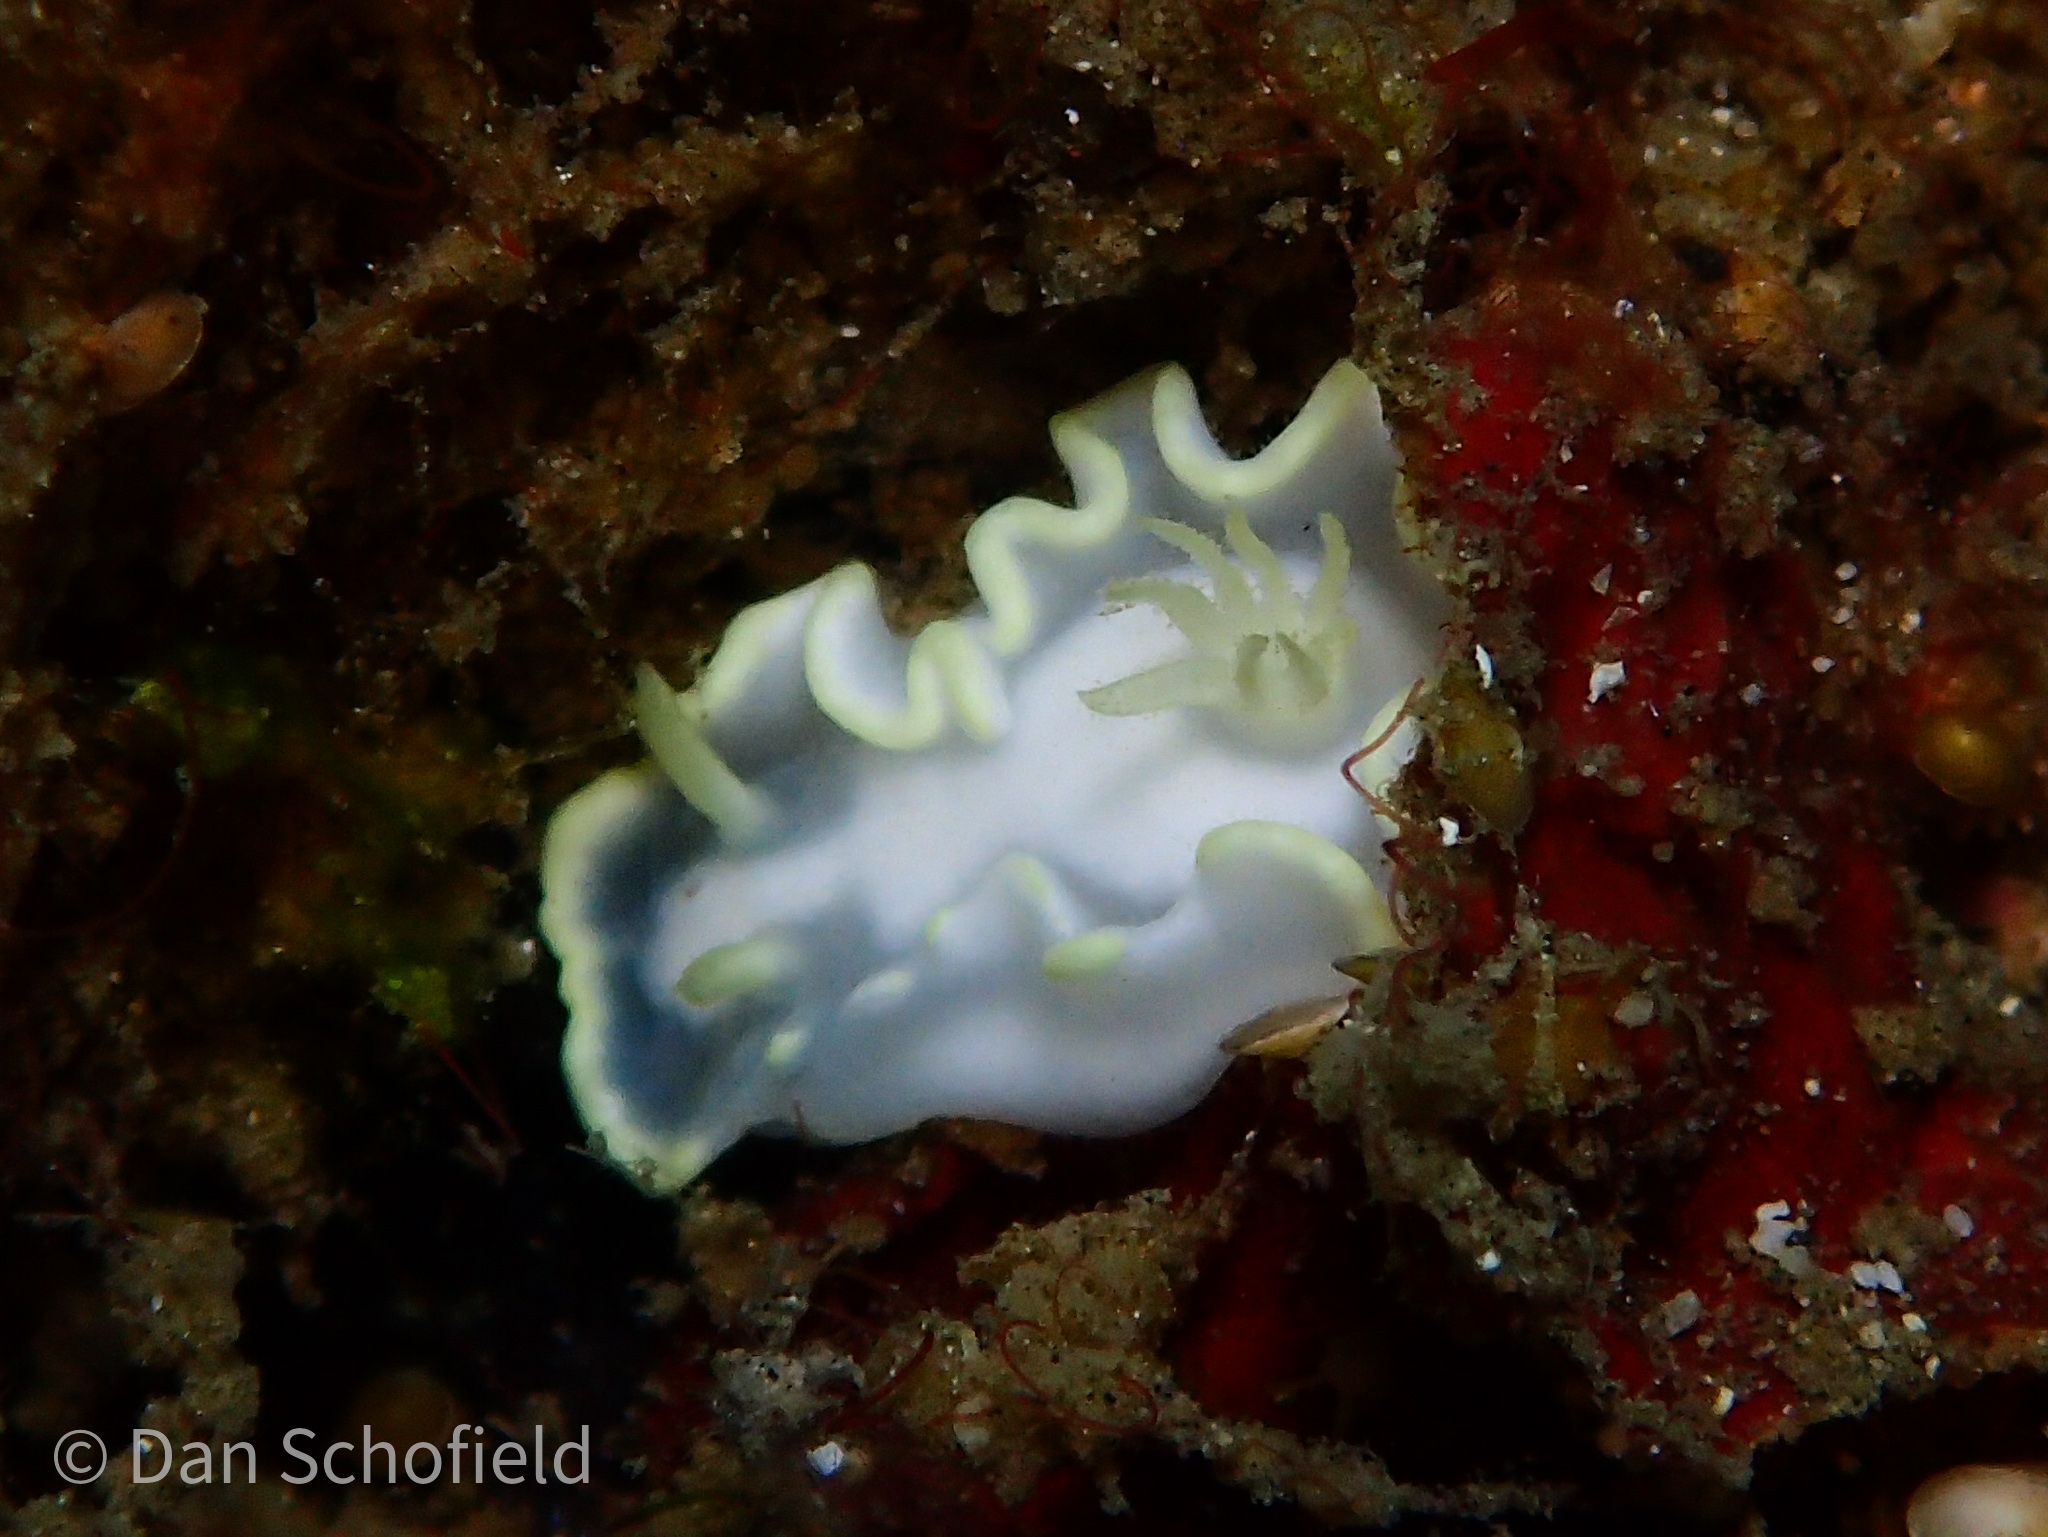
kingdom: Animalia
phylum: Mollusca
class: Gastropoda
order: Nudibranchia
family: Chromodorididae
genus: Glossodoris
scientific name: Glossodoris buko
